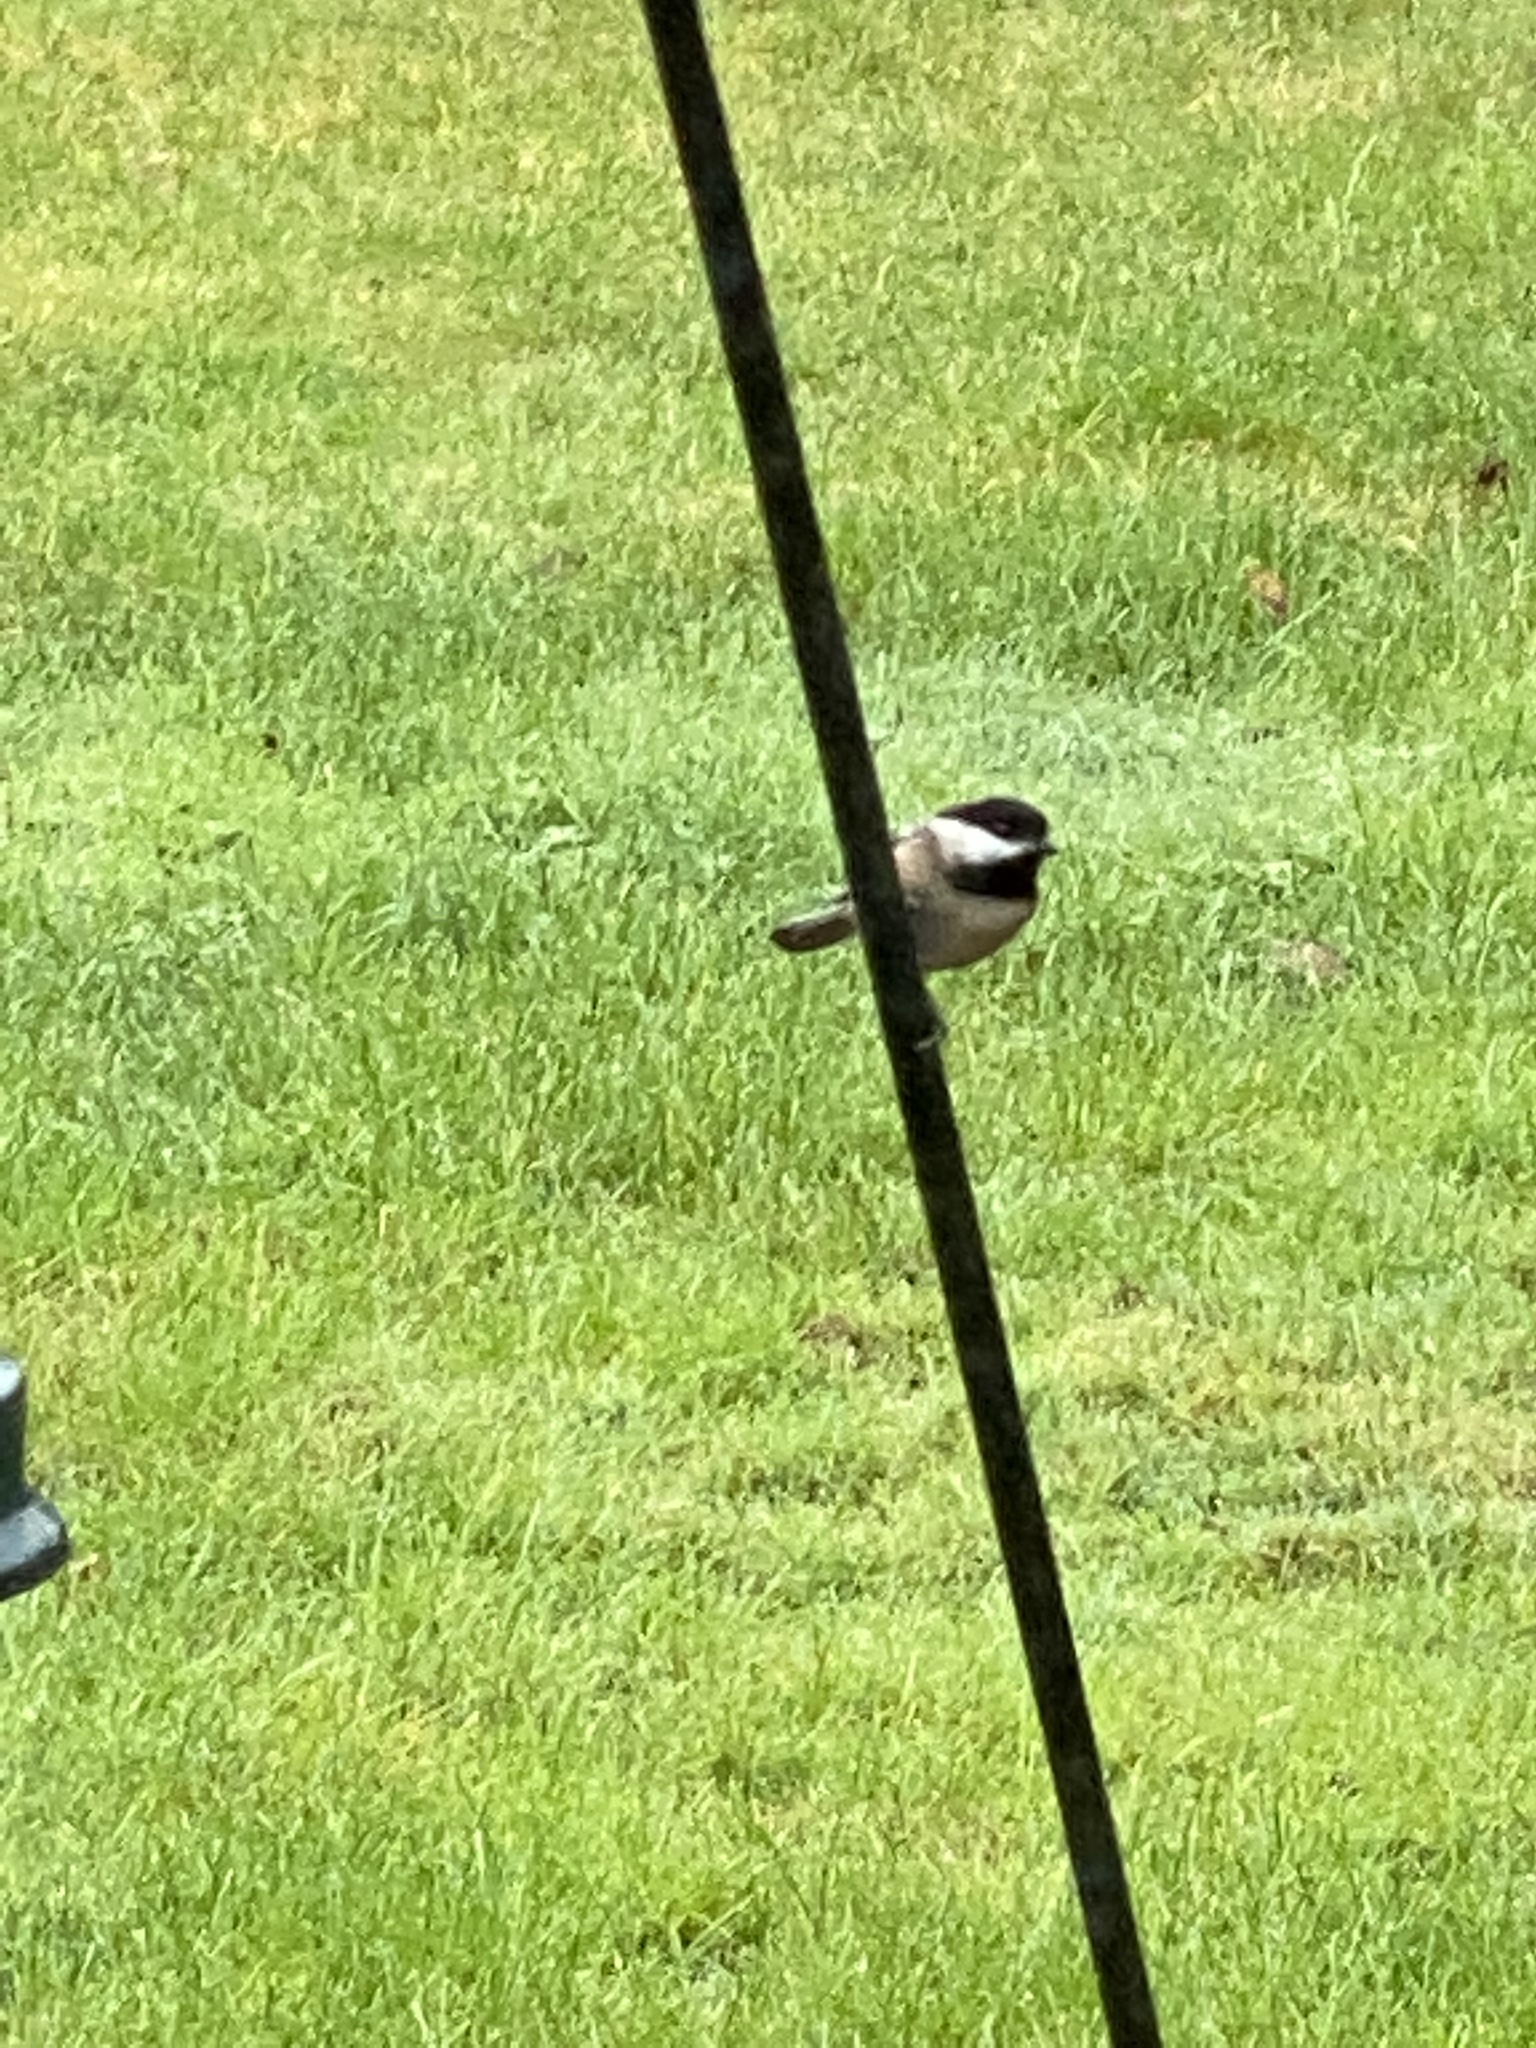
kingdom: Animalia
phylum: Chordata
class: Aves
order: Passeriformes
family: Paridae
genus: Poecile
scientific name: Poecile atricapillus
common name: Black-capped chickadee
